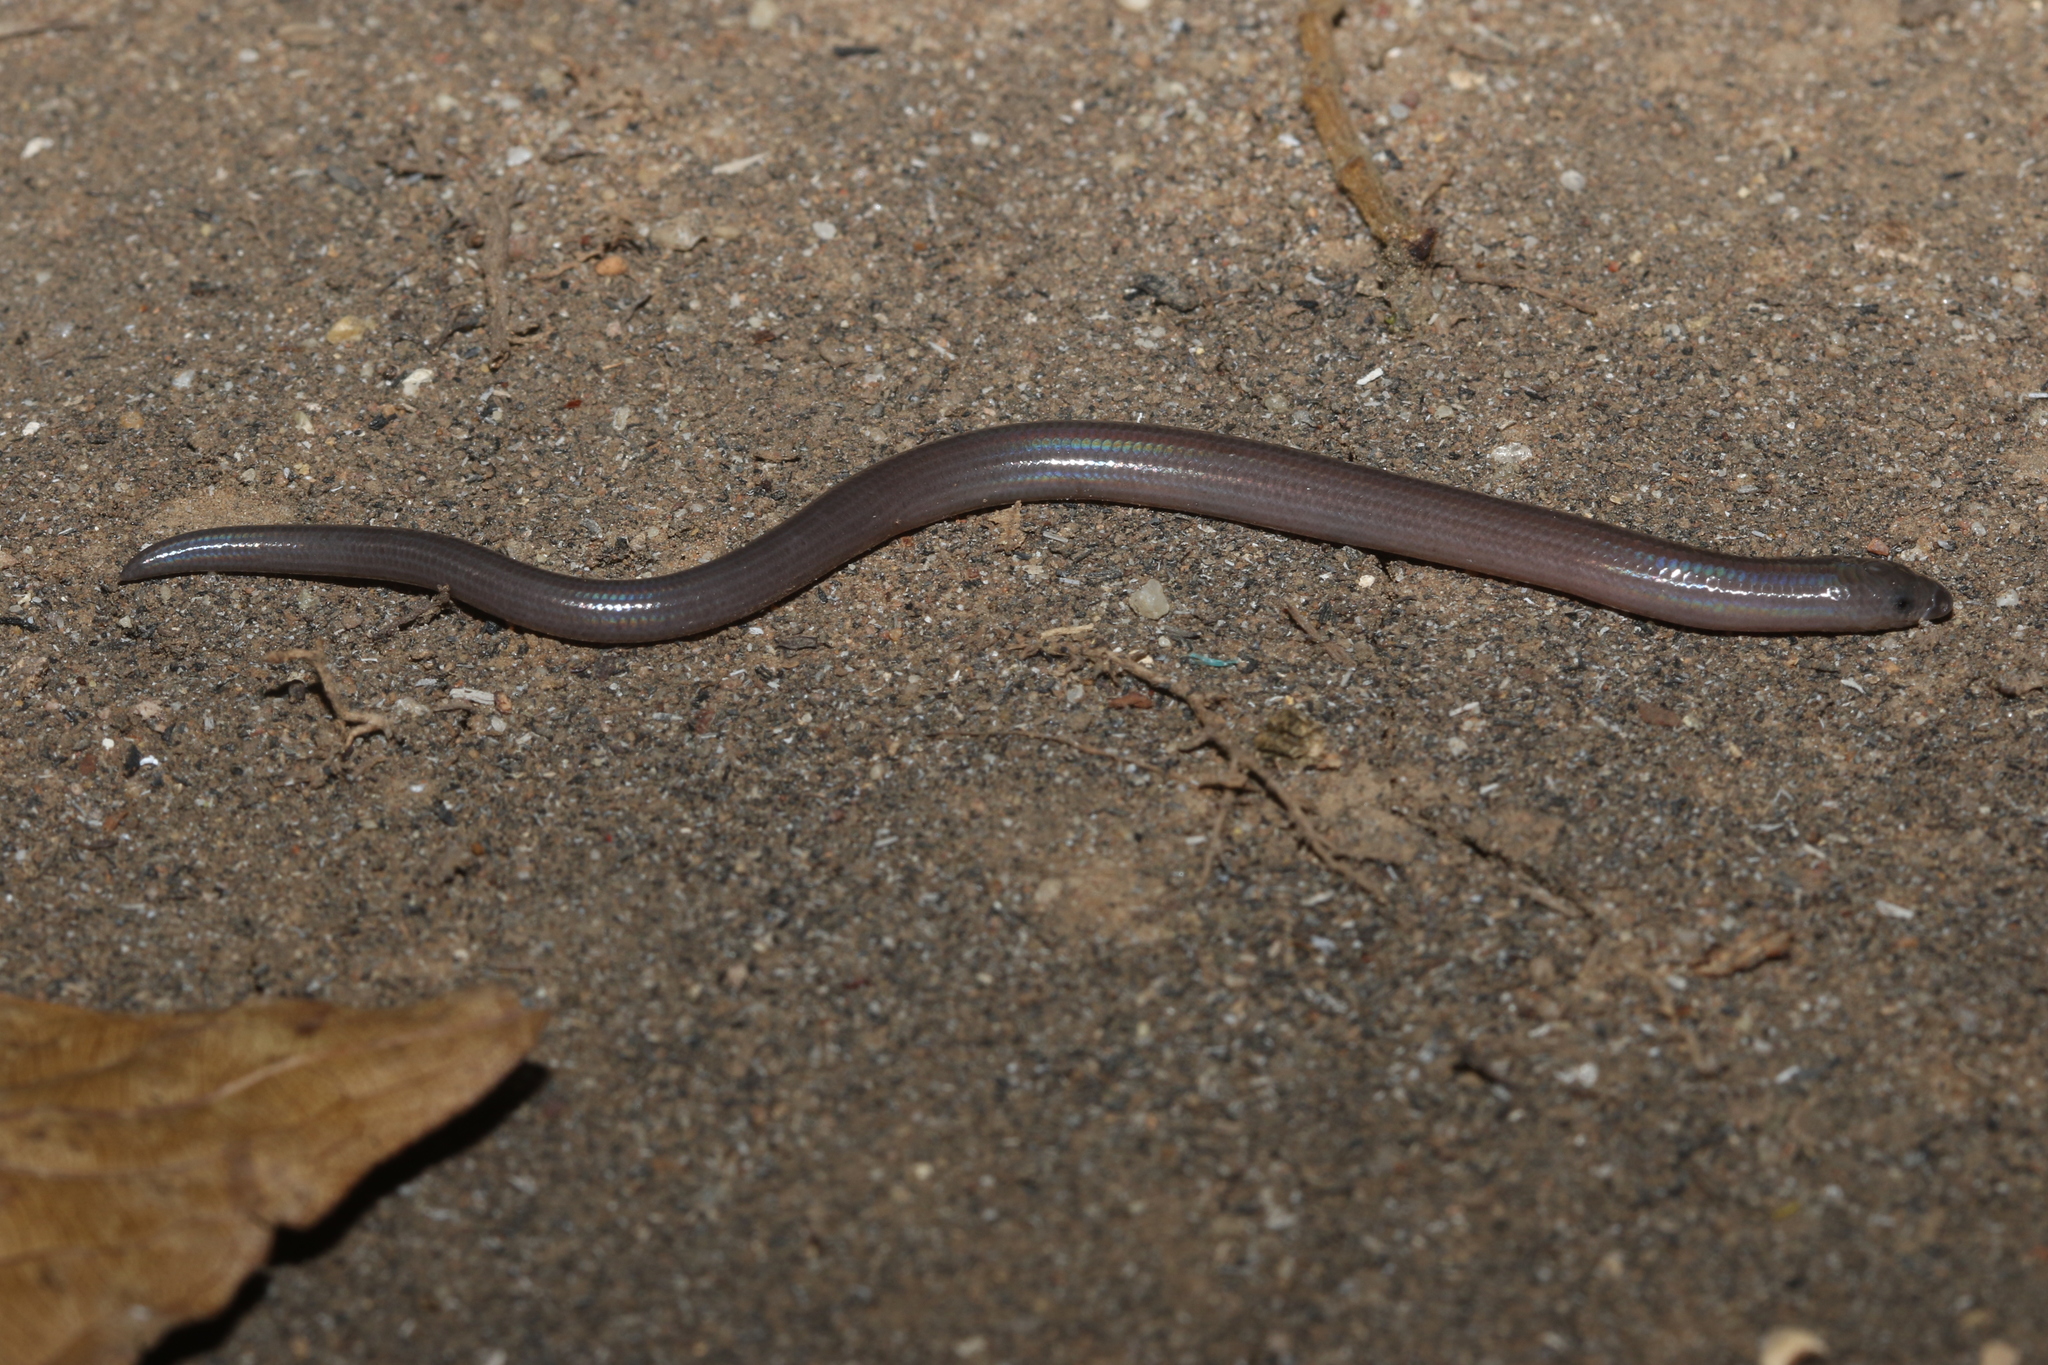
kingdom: Animalia
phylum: Chordata
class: Squamata
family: Scincidae
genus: Brachymeles
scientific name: Brachymeles miriamae
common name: Miriam's skink
